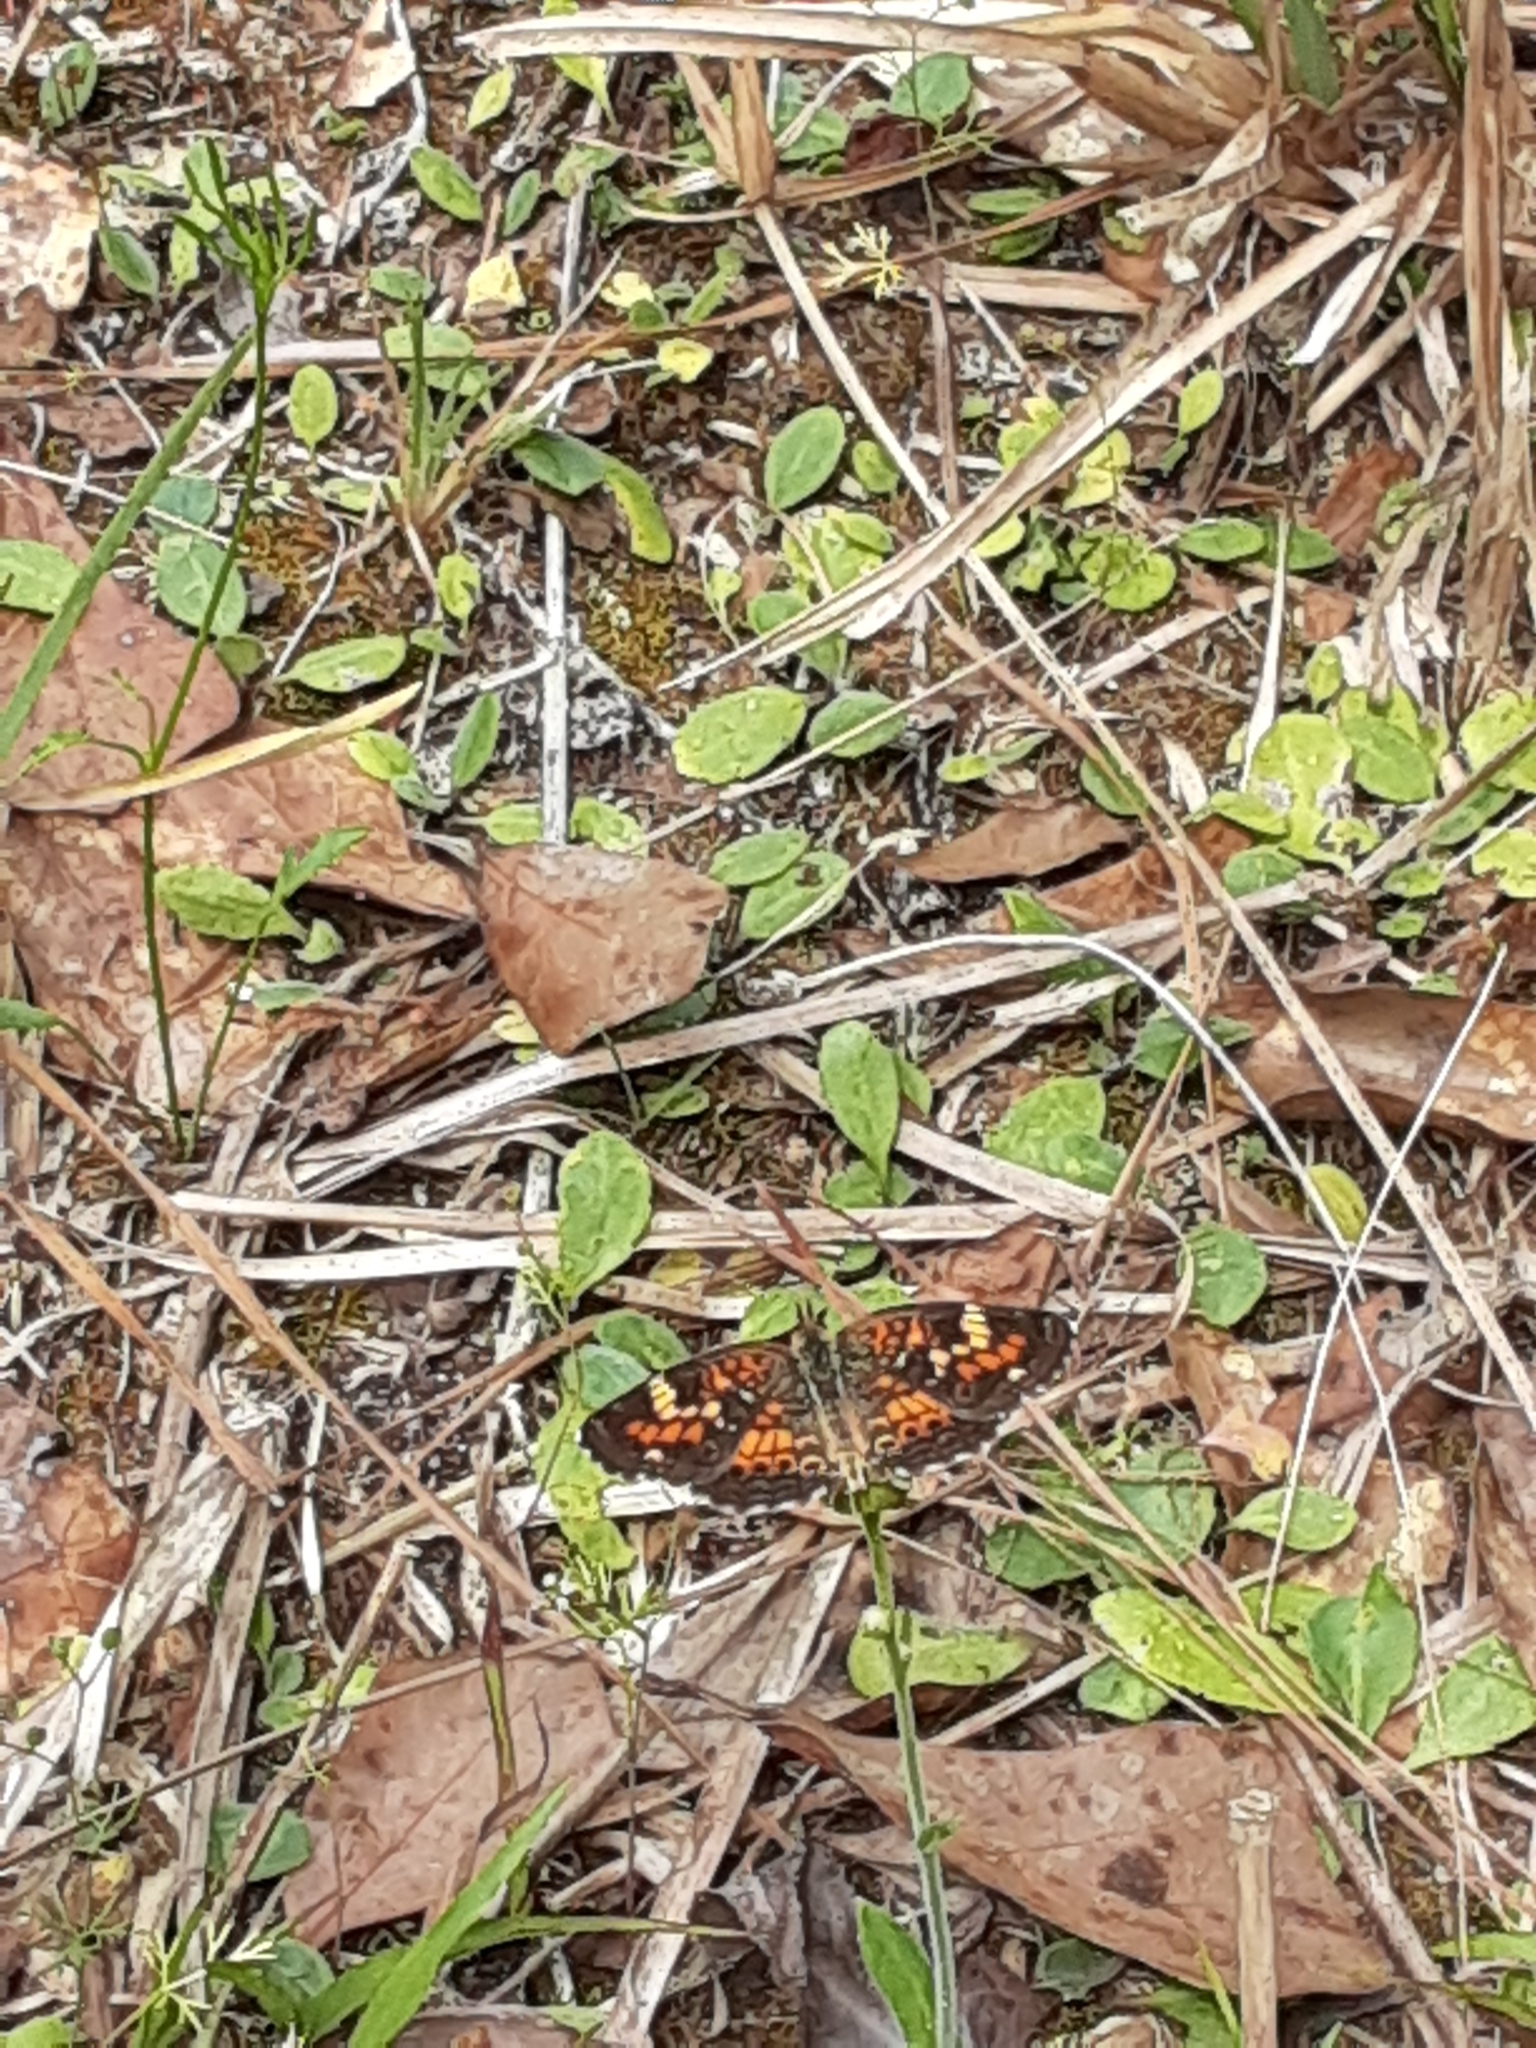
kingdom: Animalia
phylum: Arthropoda
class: Insecta
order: Lepidoptera
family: Nymphalidae
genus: Phyciodes
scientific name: Phyciodes phaon
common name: Phaon crescent
